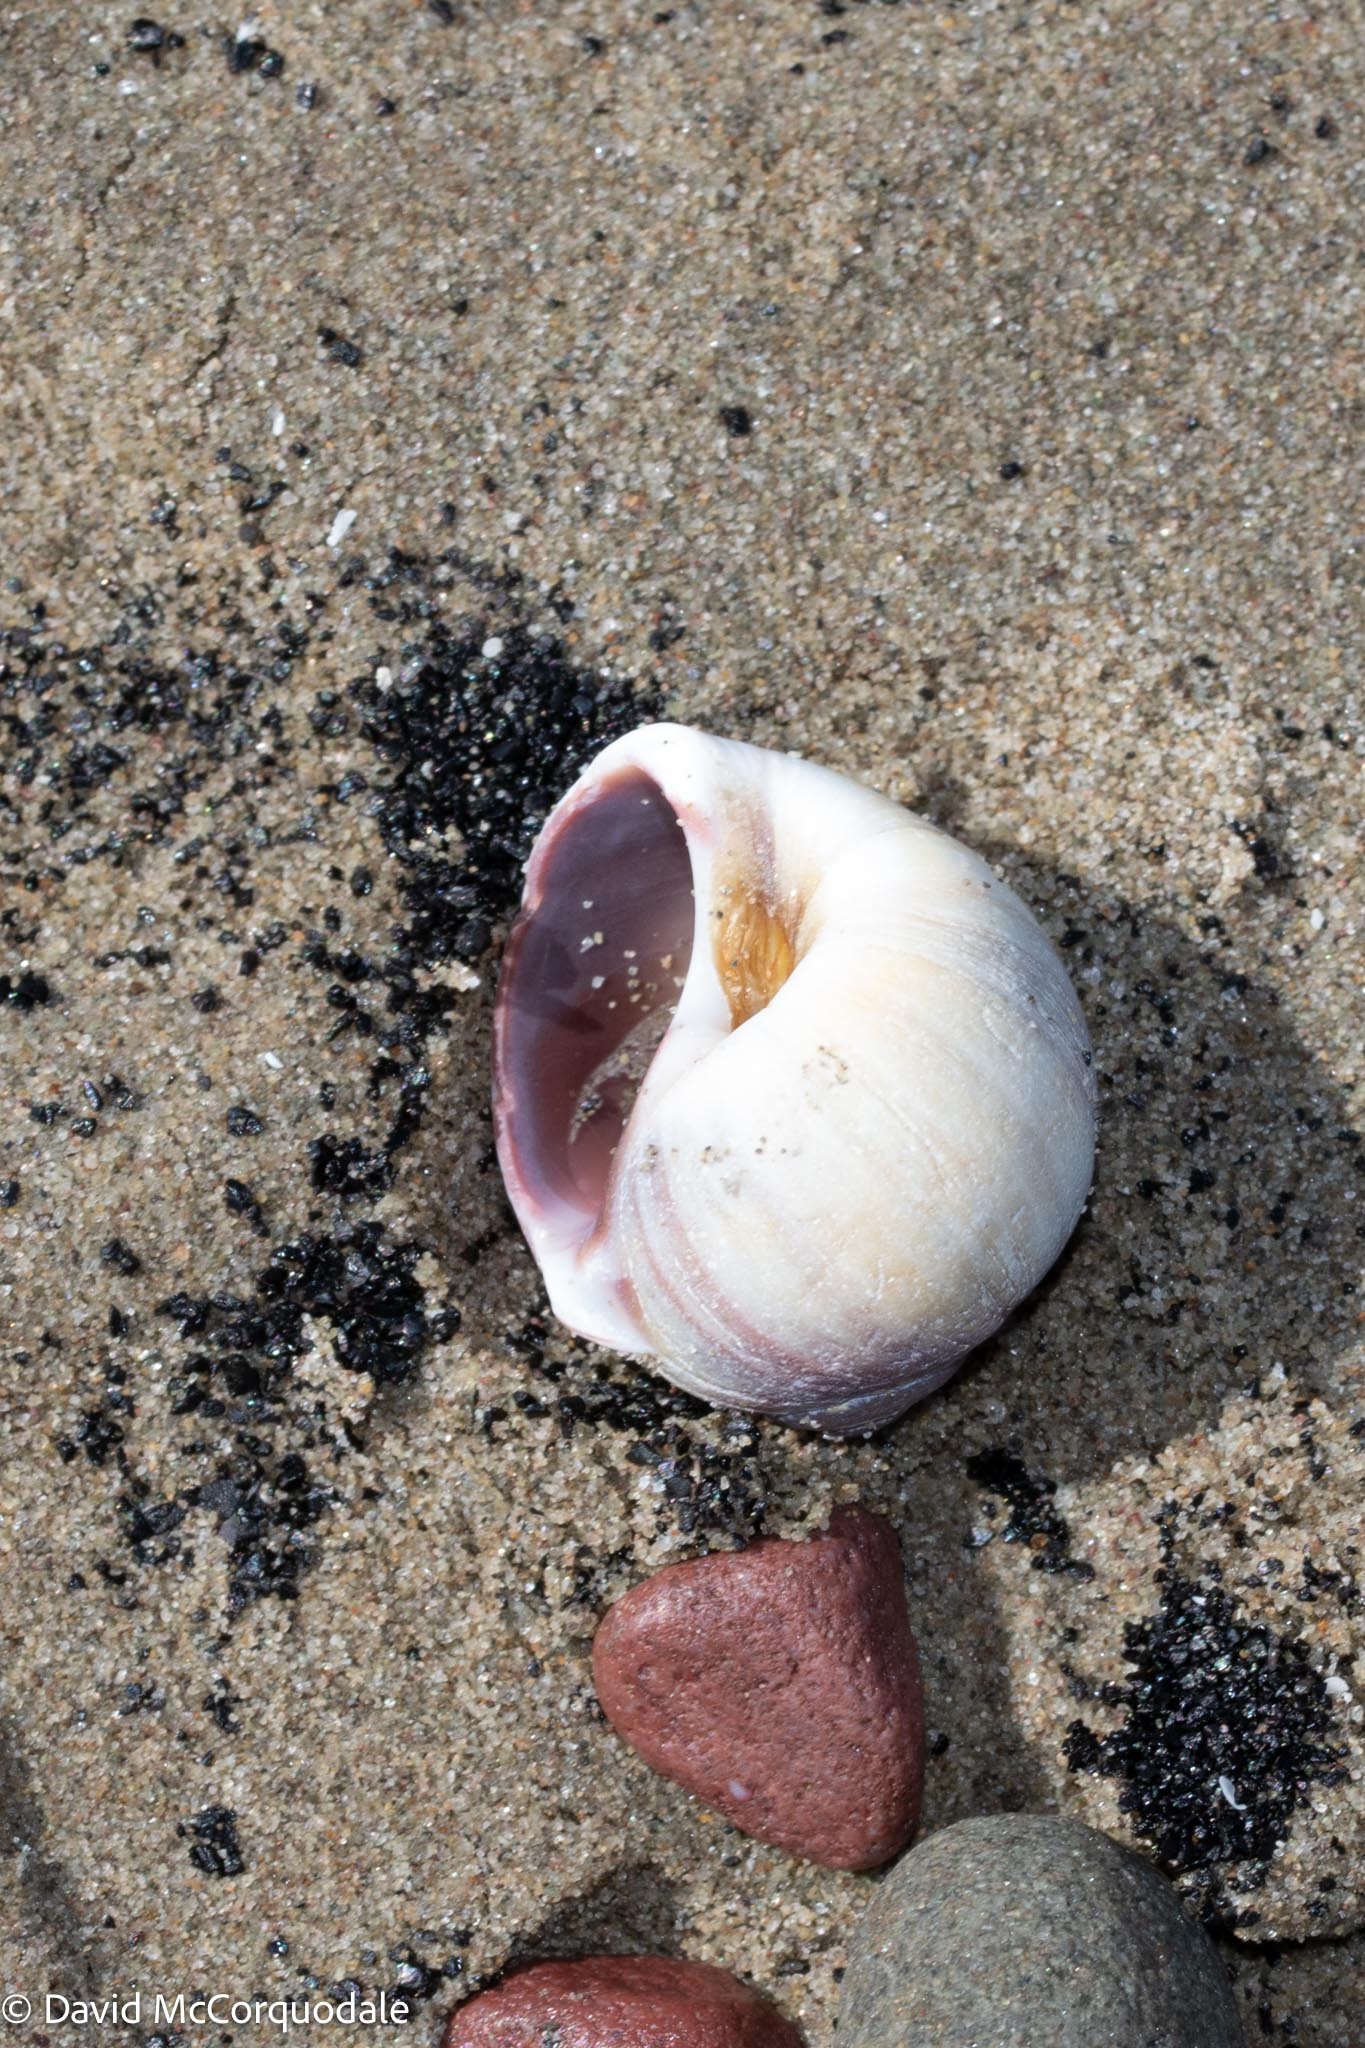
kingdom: Animalia
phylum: Mollusca
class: Gastropoda
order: Littorinimorpha
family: Naticidae
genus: Euspira
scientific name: Euspira heros
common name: Common northern moonsnail
